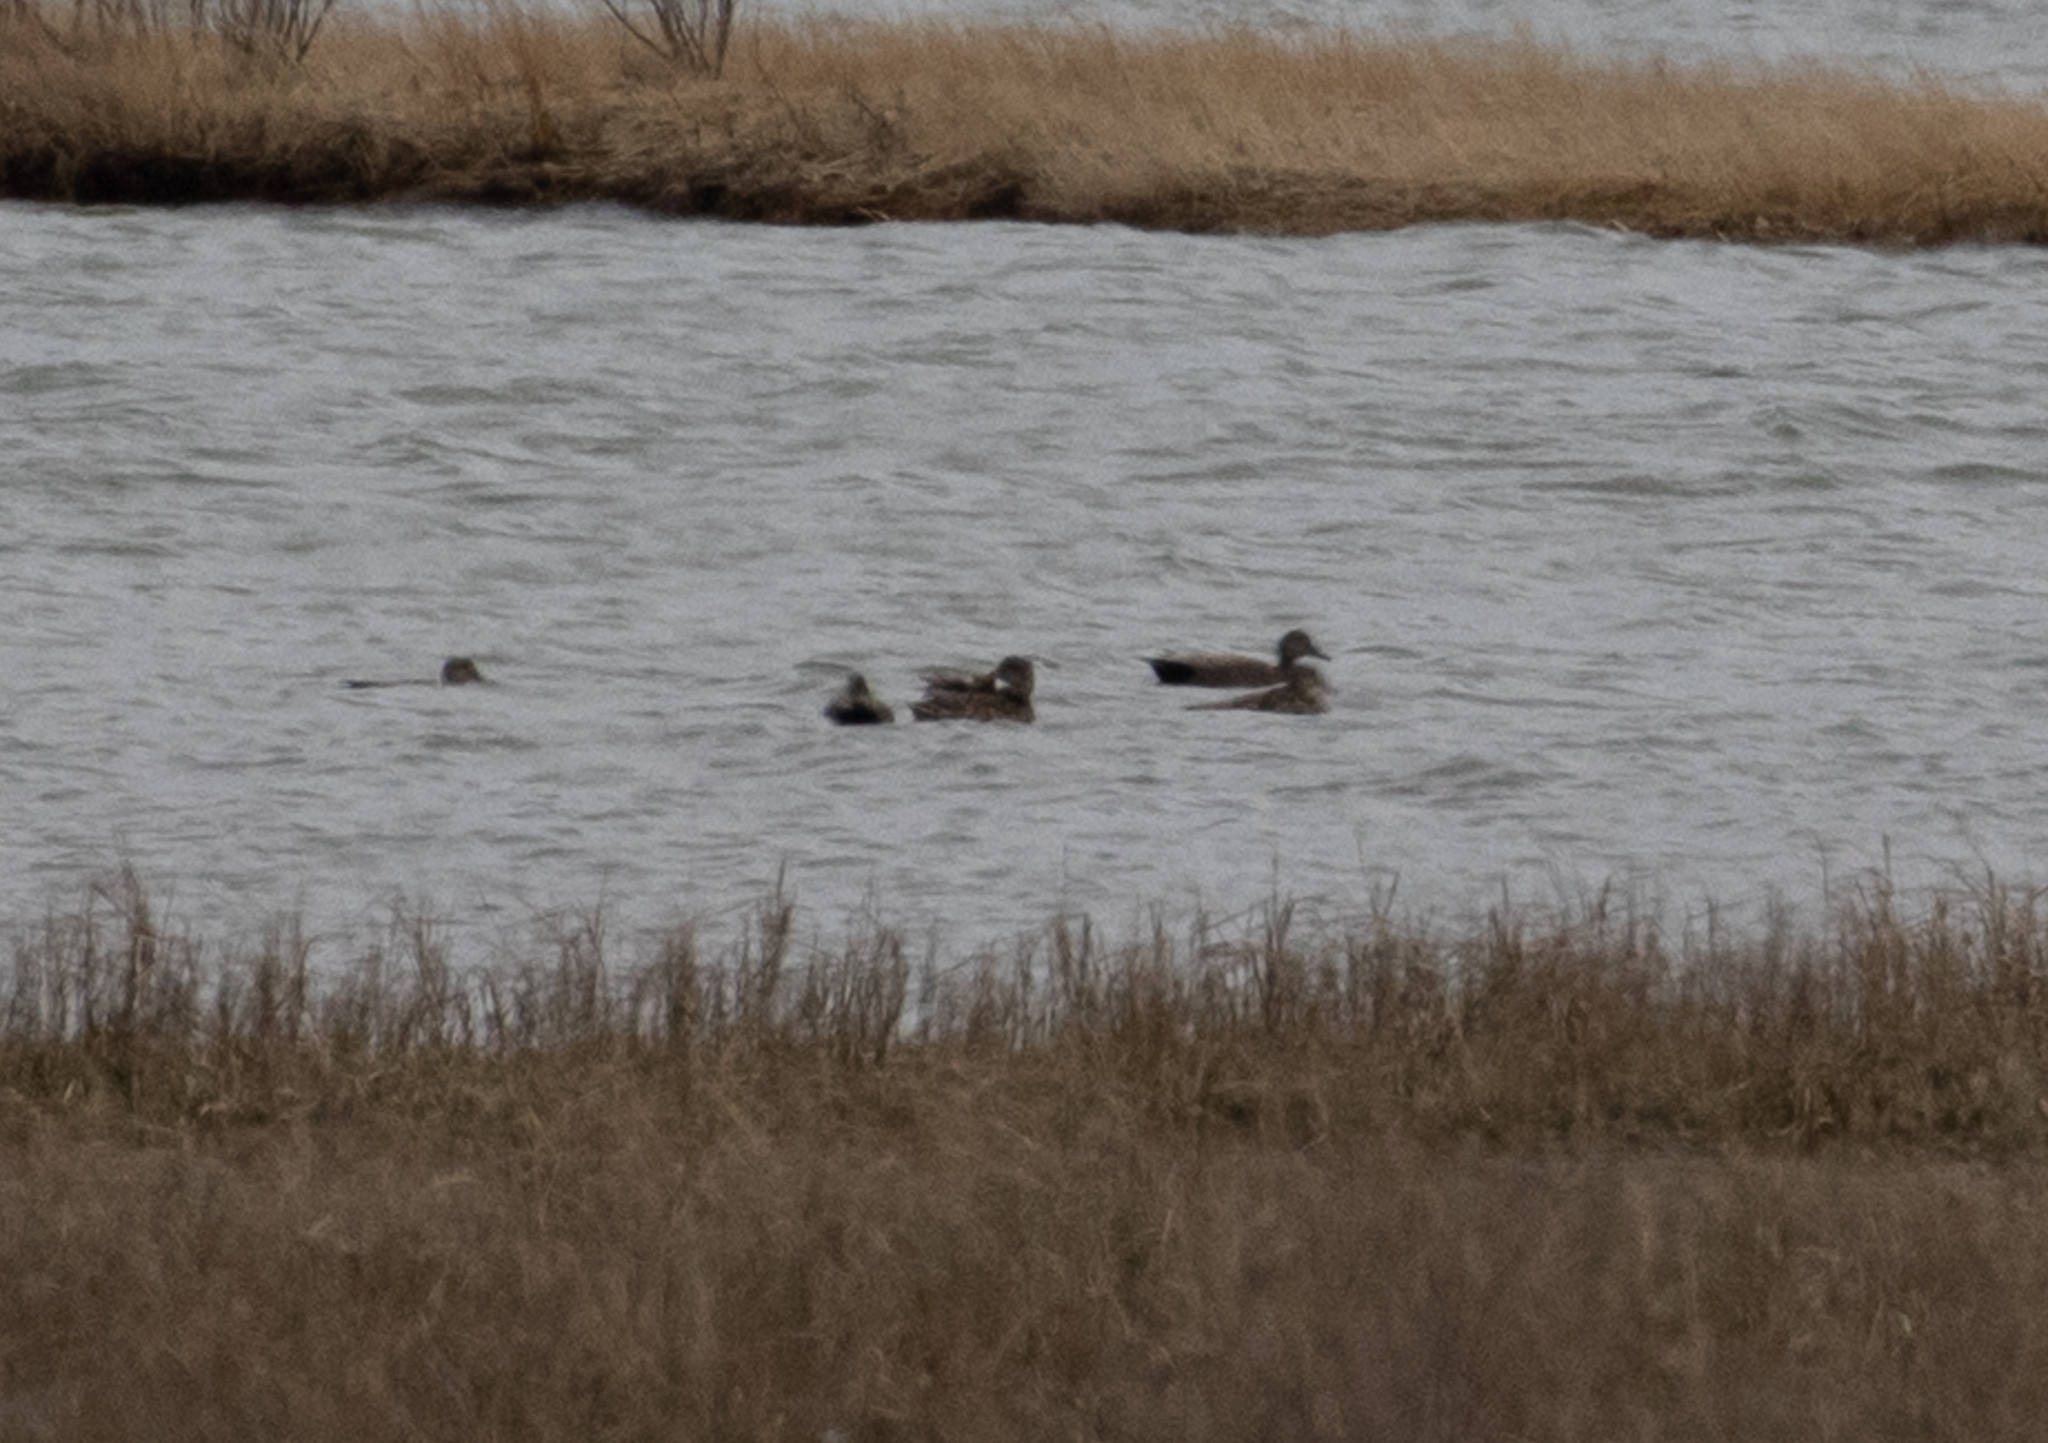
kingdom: Animalia
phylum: Chordata
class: Aves
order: Anseriformes
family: Anatidae
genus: Mareca
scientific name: Mareca strepera
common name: Gadwall
